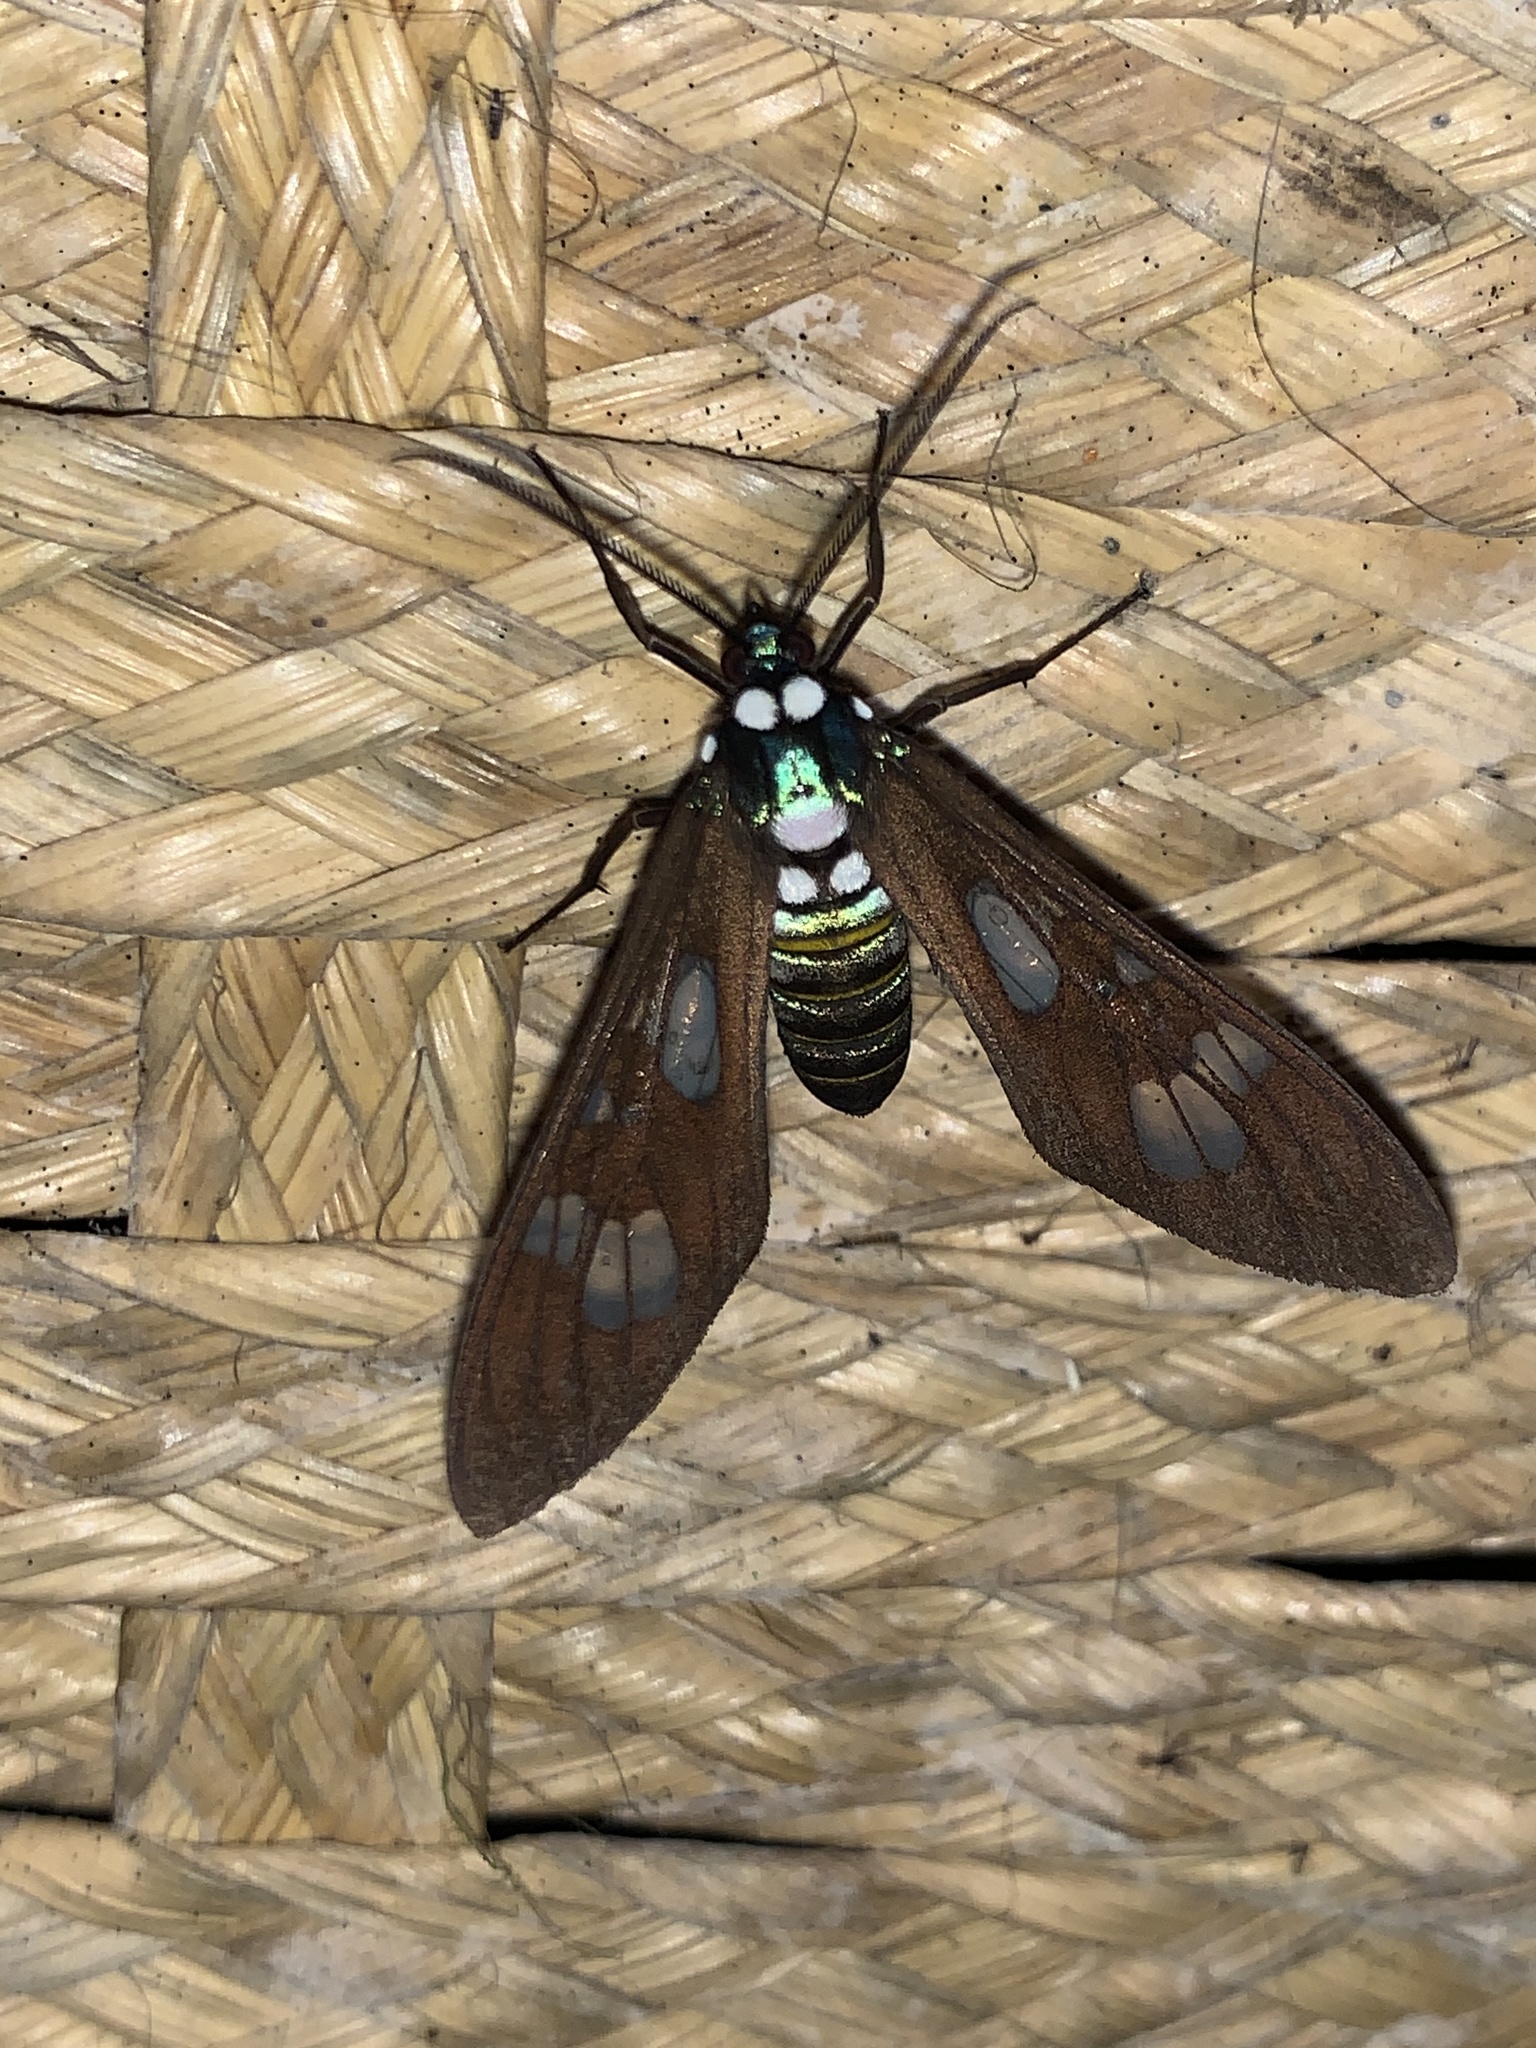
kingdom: Animalia
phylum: Arthropoda
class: Insecta
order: Lepidoptera
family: Erebidae
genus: Phaio
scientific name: Phaio acquiguttata
